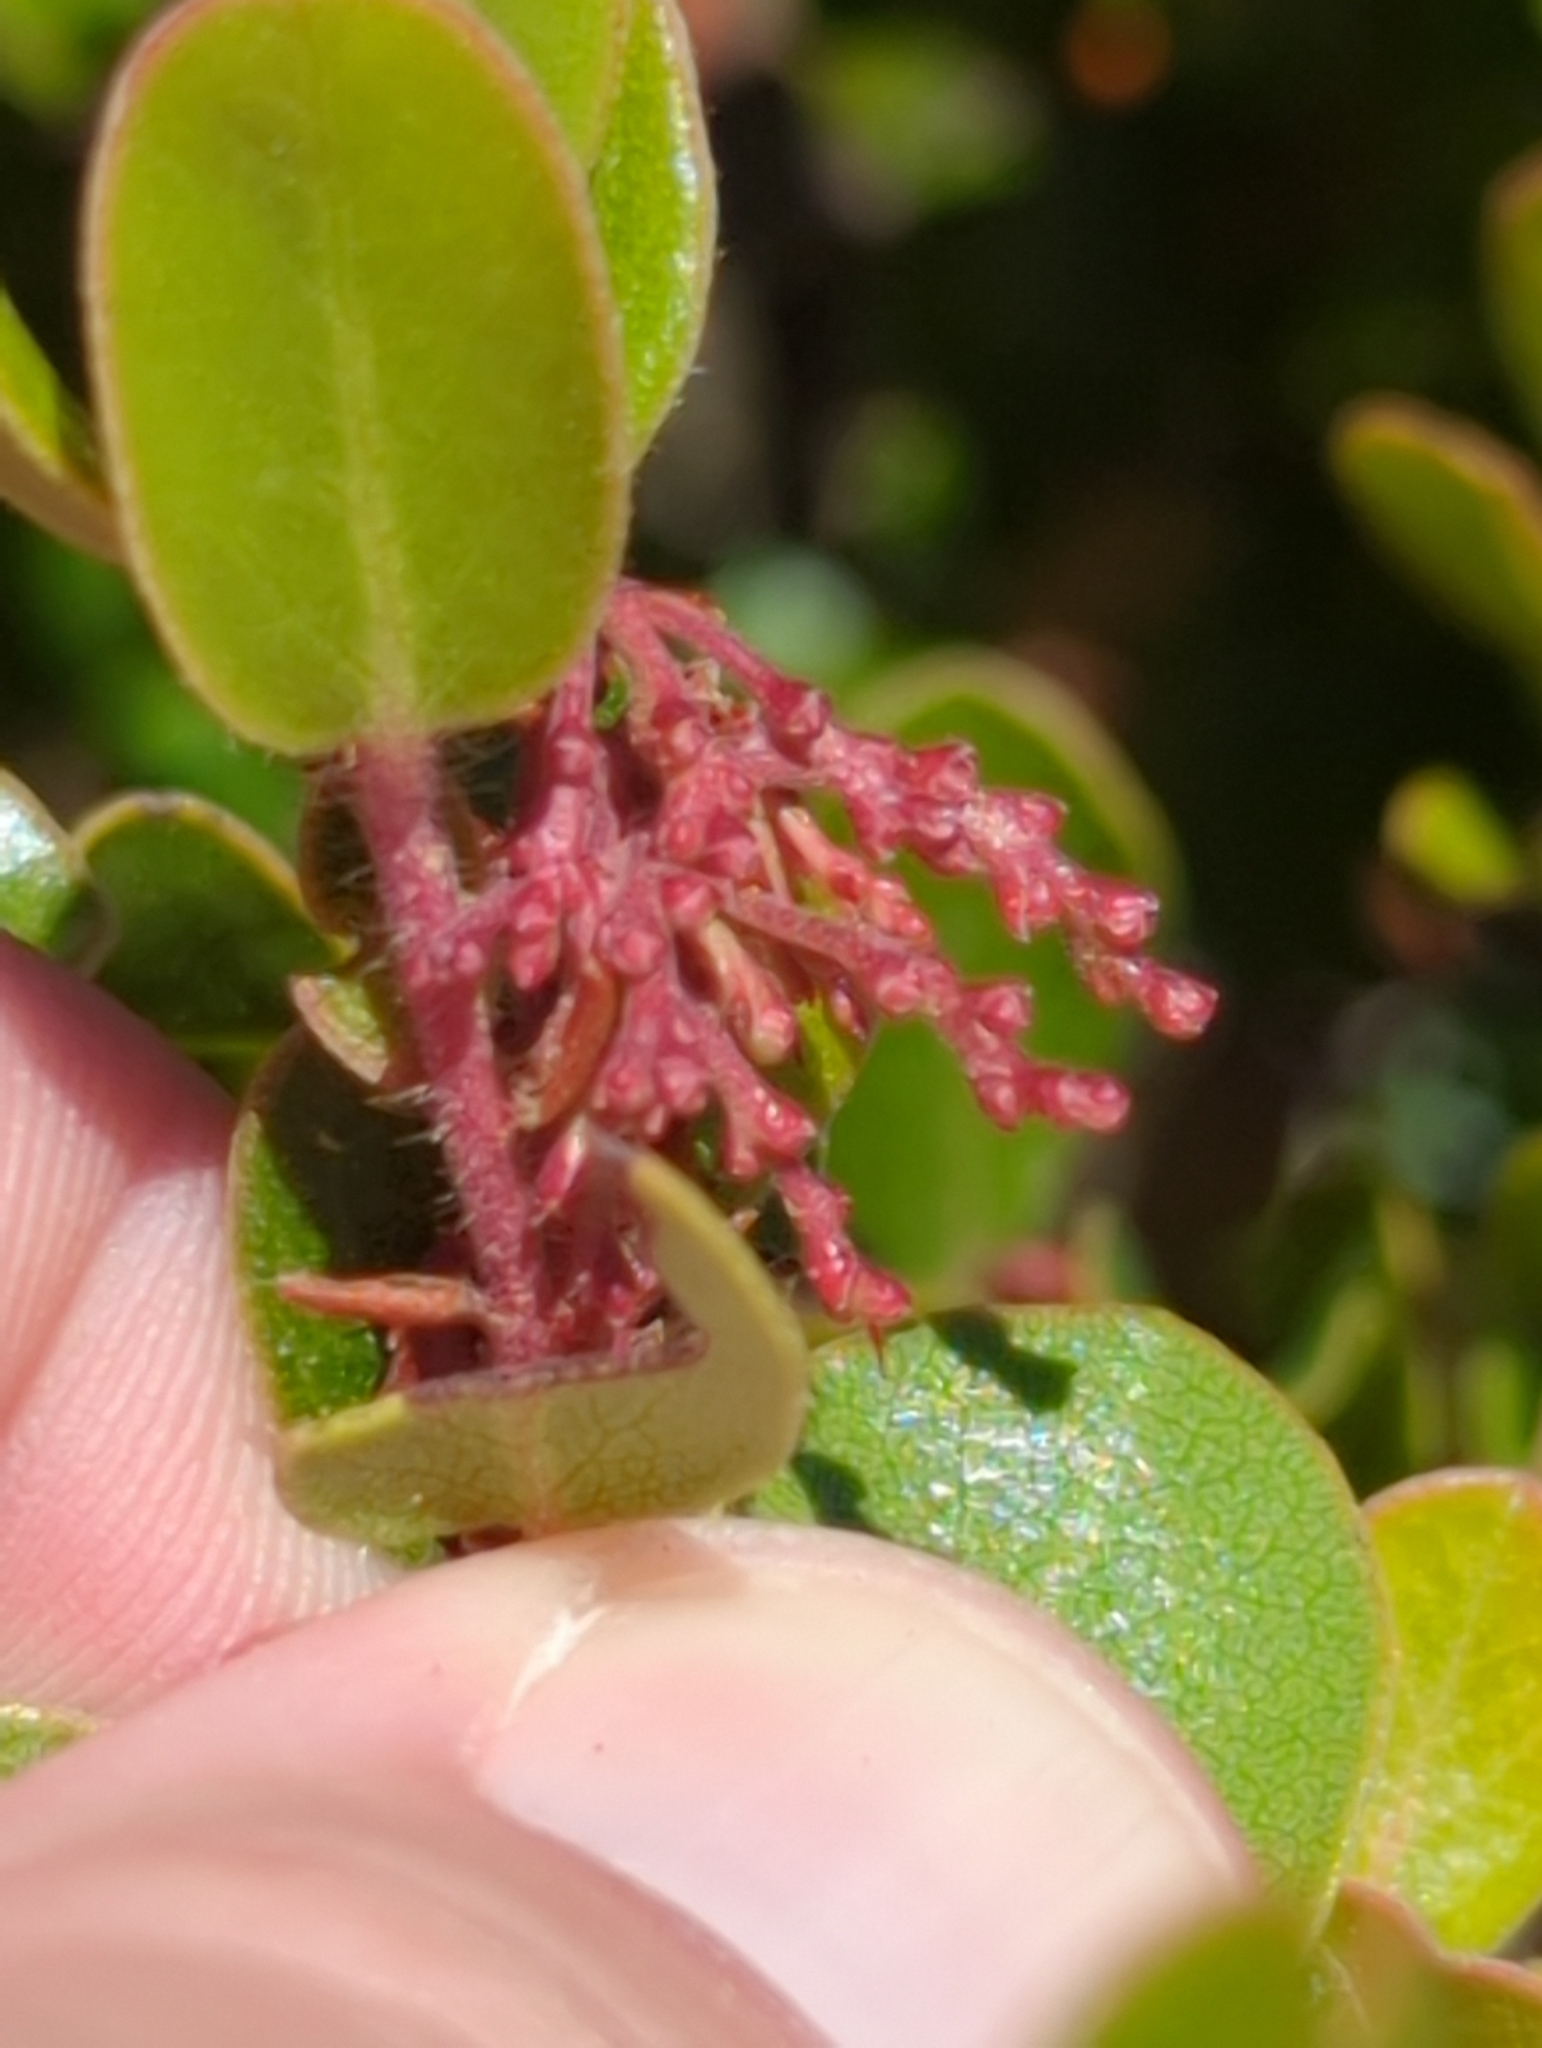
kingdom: Plantae
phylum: Tracheophyta
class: Magnoliopsida
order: Ericales
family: Ericaceae
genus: Arctostaphylos
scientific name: Arctostaphylos nummularia
